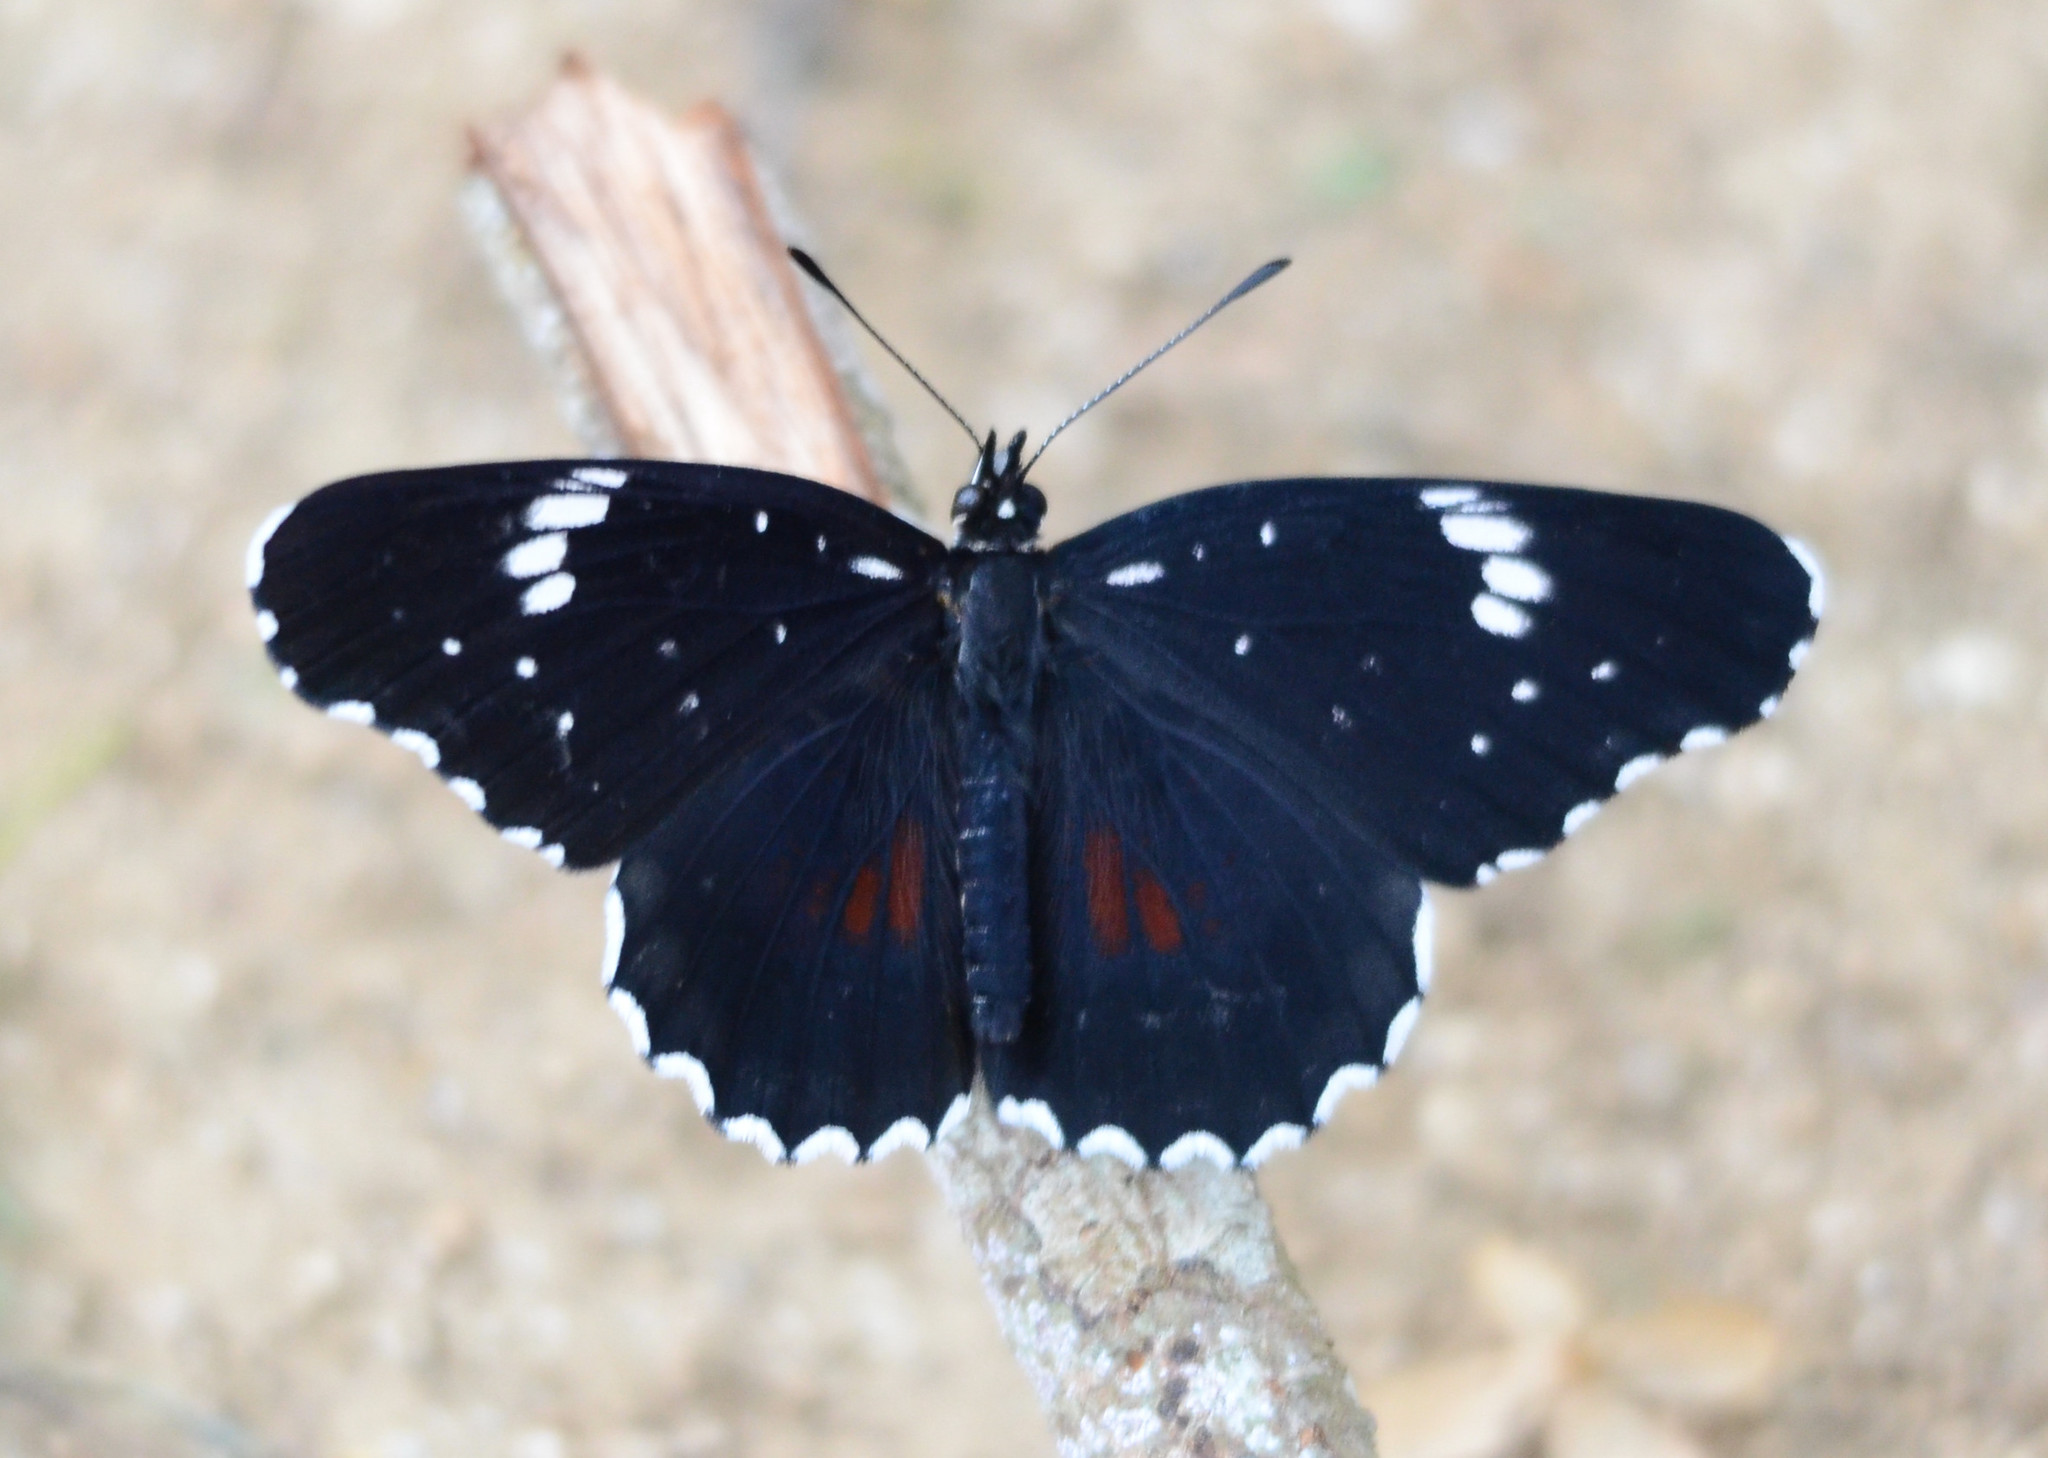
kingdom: Animalia
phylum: Arthropoda
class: Insecta
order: Lepidoptera
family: Nymphalidae
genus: Chlosyne
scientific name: Chlosyne janais
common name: Crimson patch
